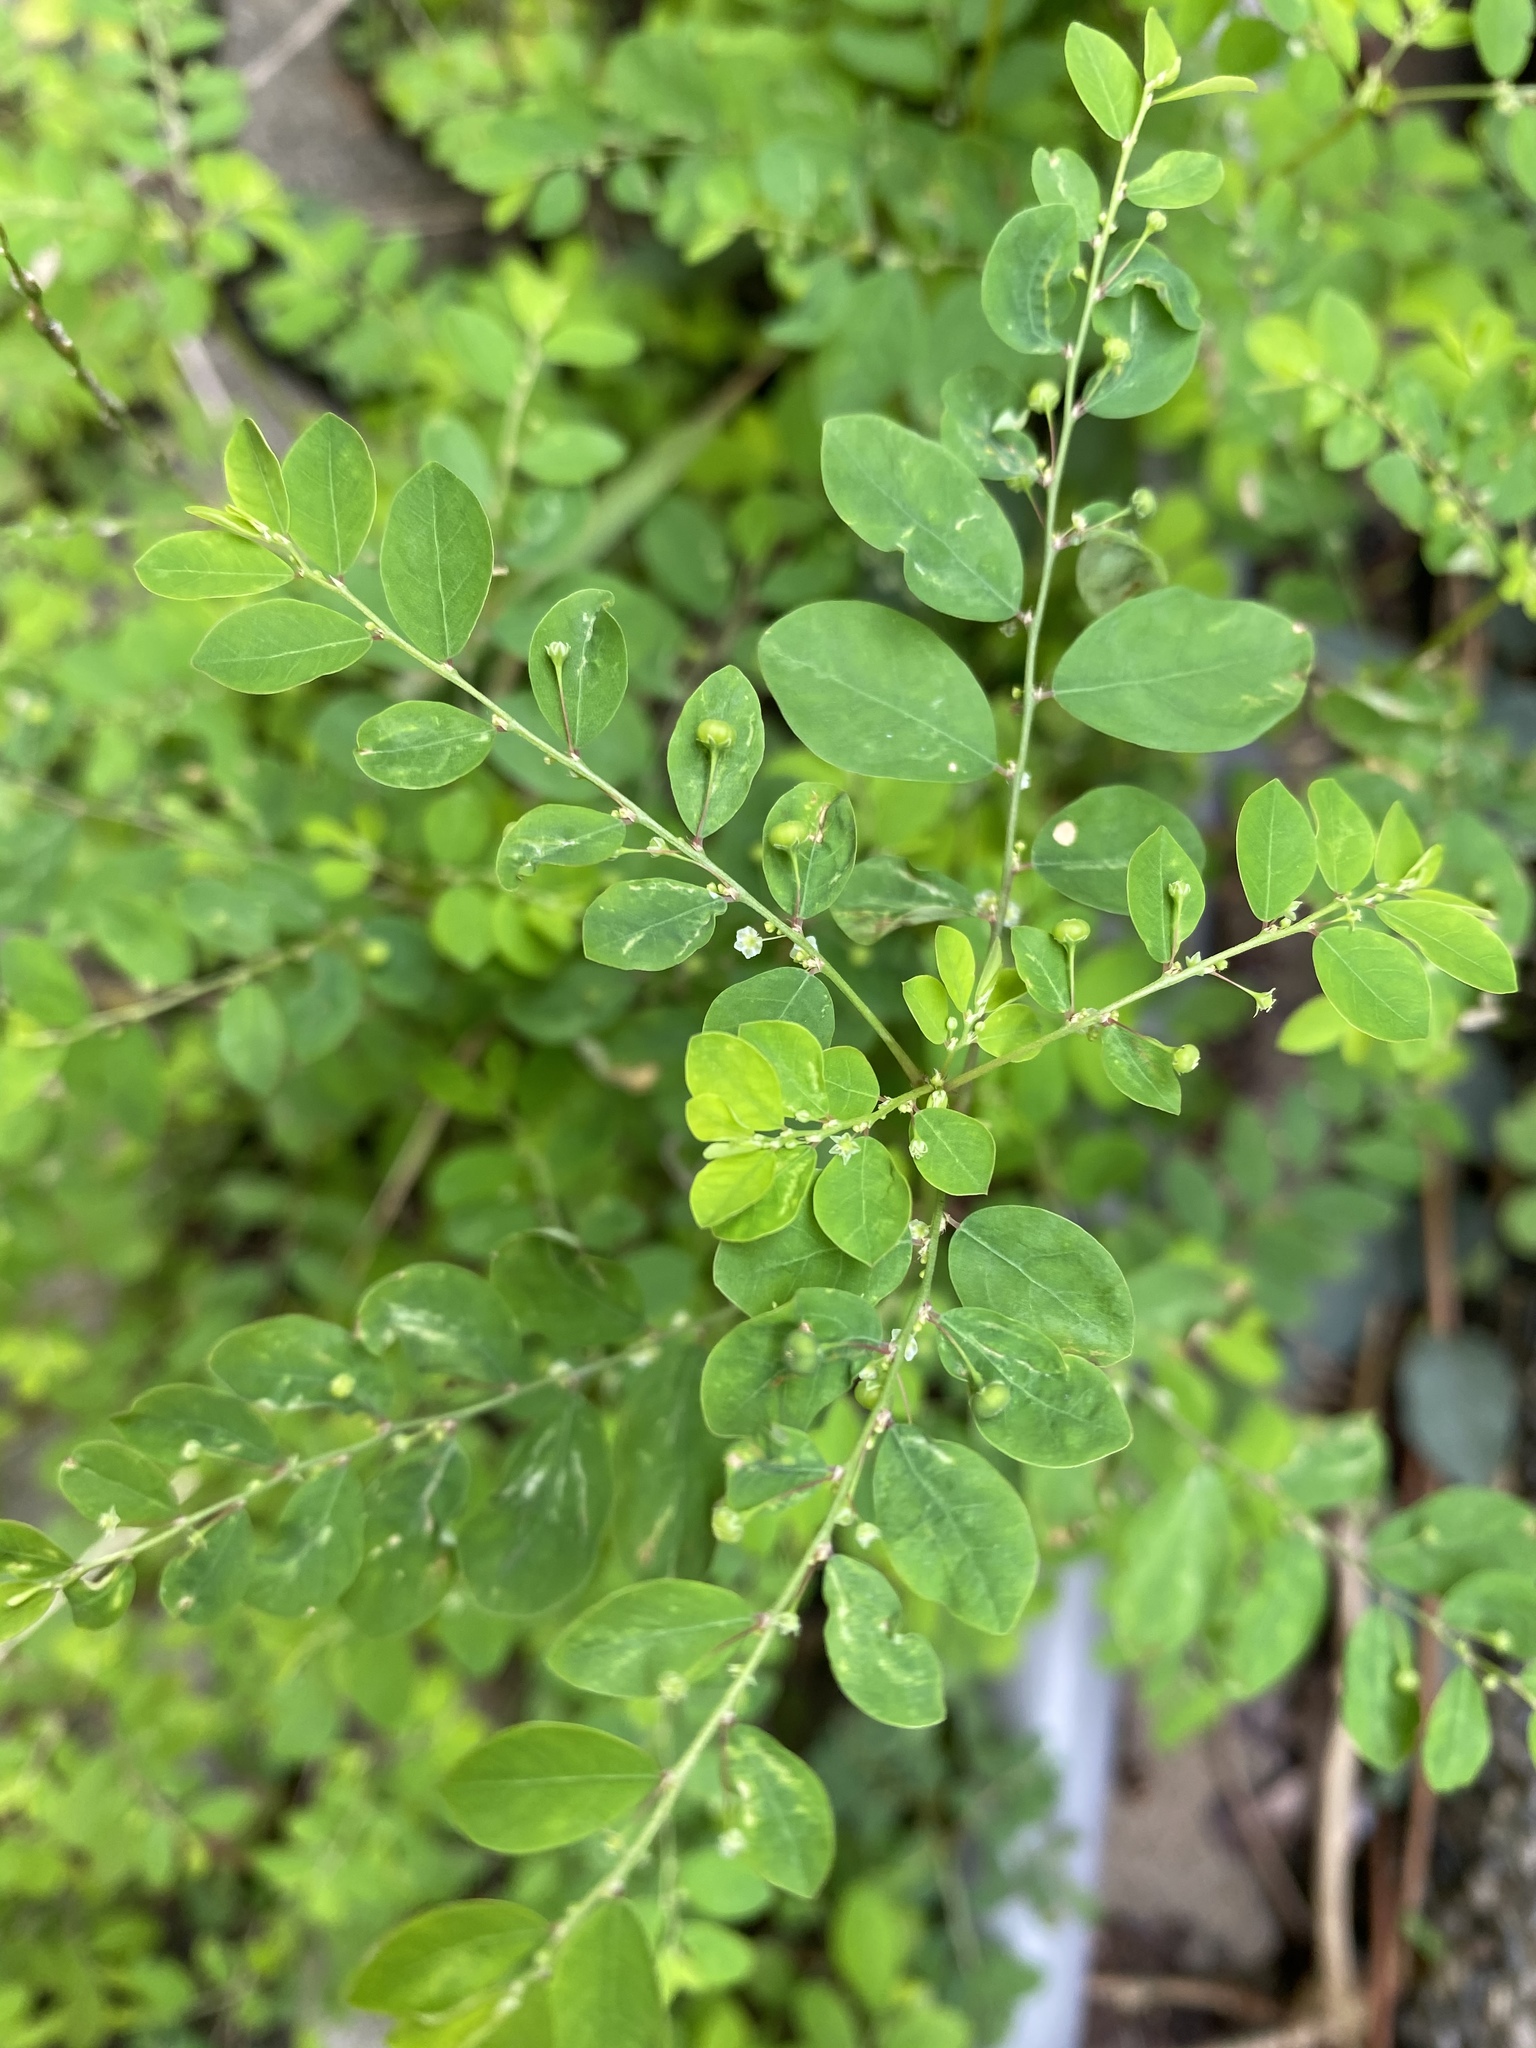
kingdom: Plantae
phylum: Tracheophyta
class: Magnoliopsida
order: Malpighiales
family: Phyllanthaceae
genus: Phyllanthus
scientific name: Phyllanthus tenellus
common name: Mascarene island leaf-flower
